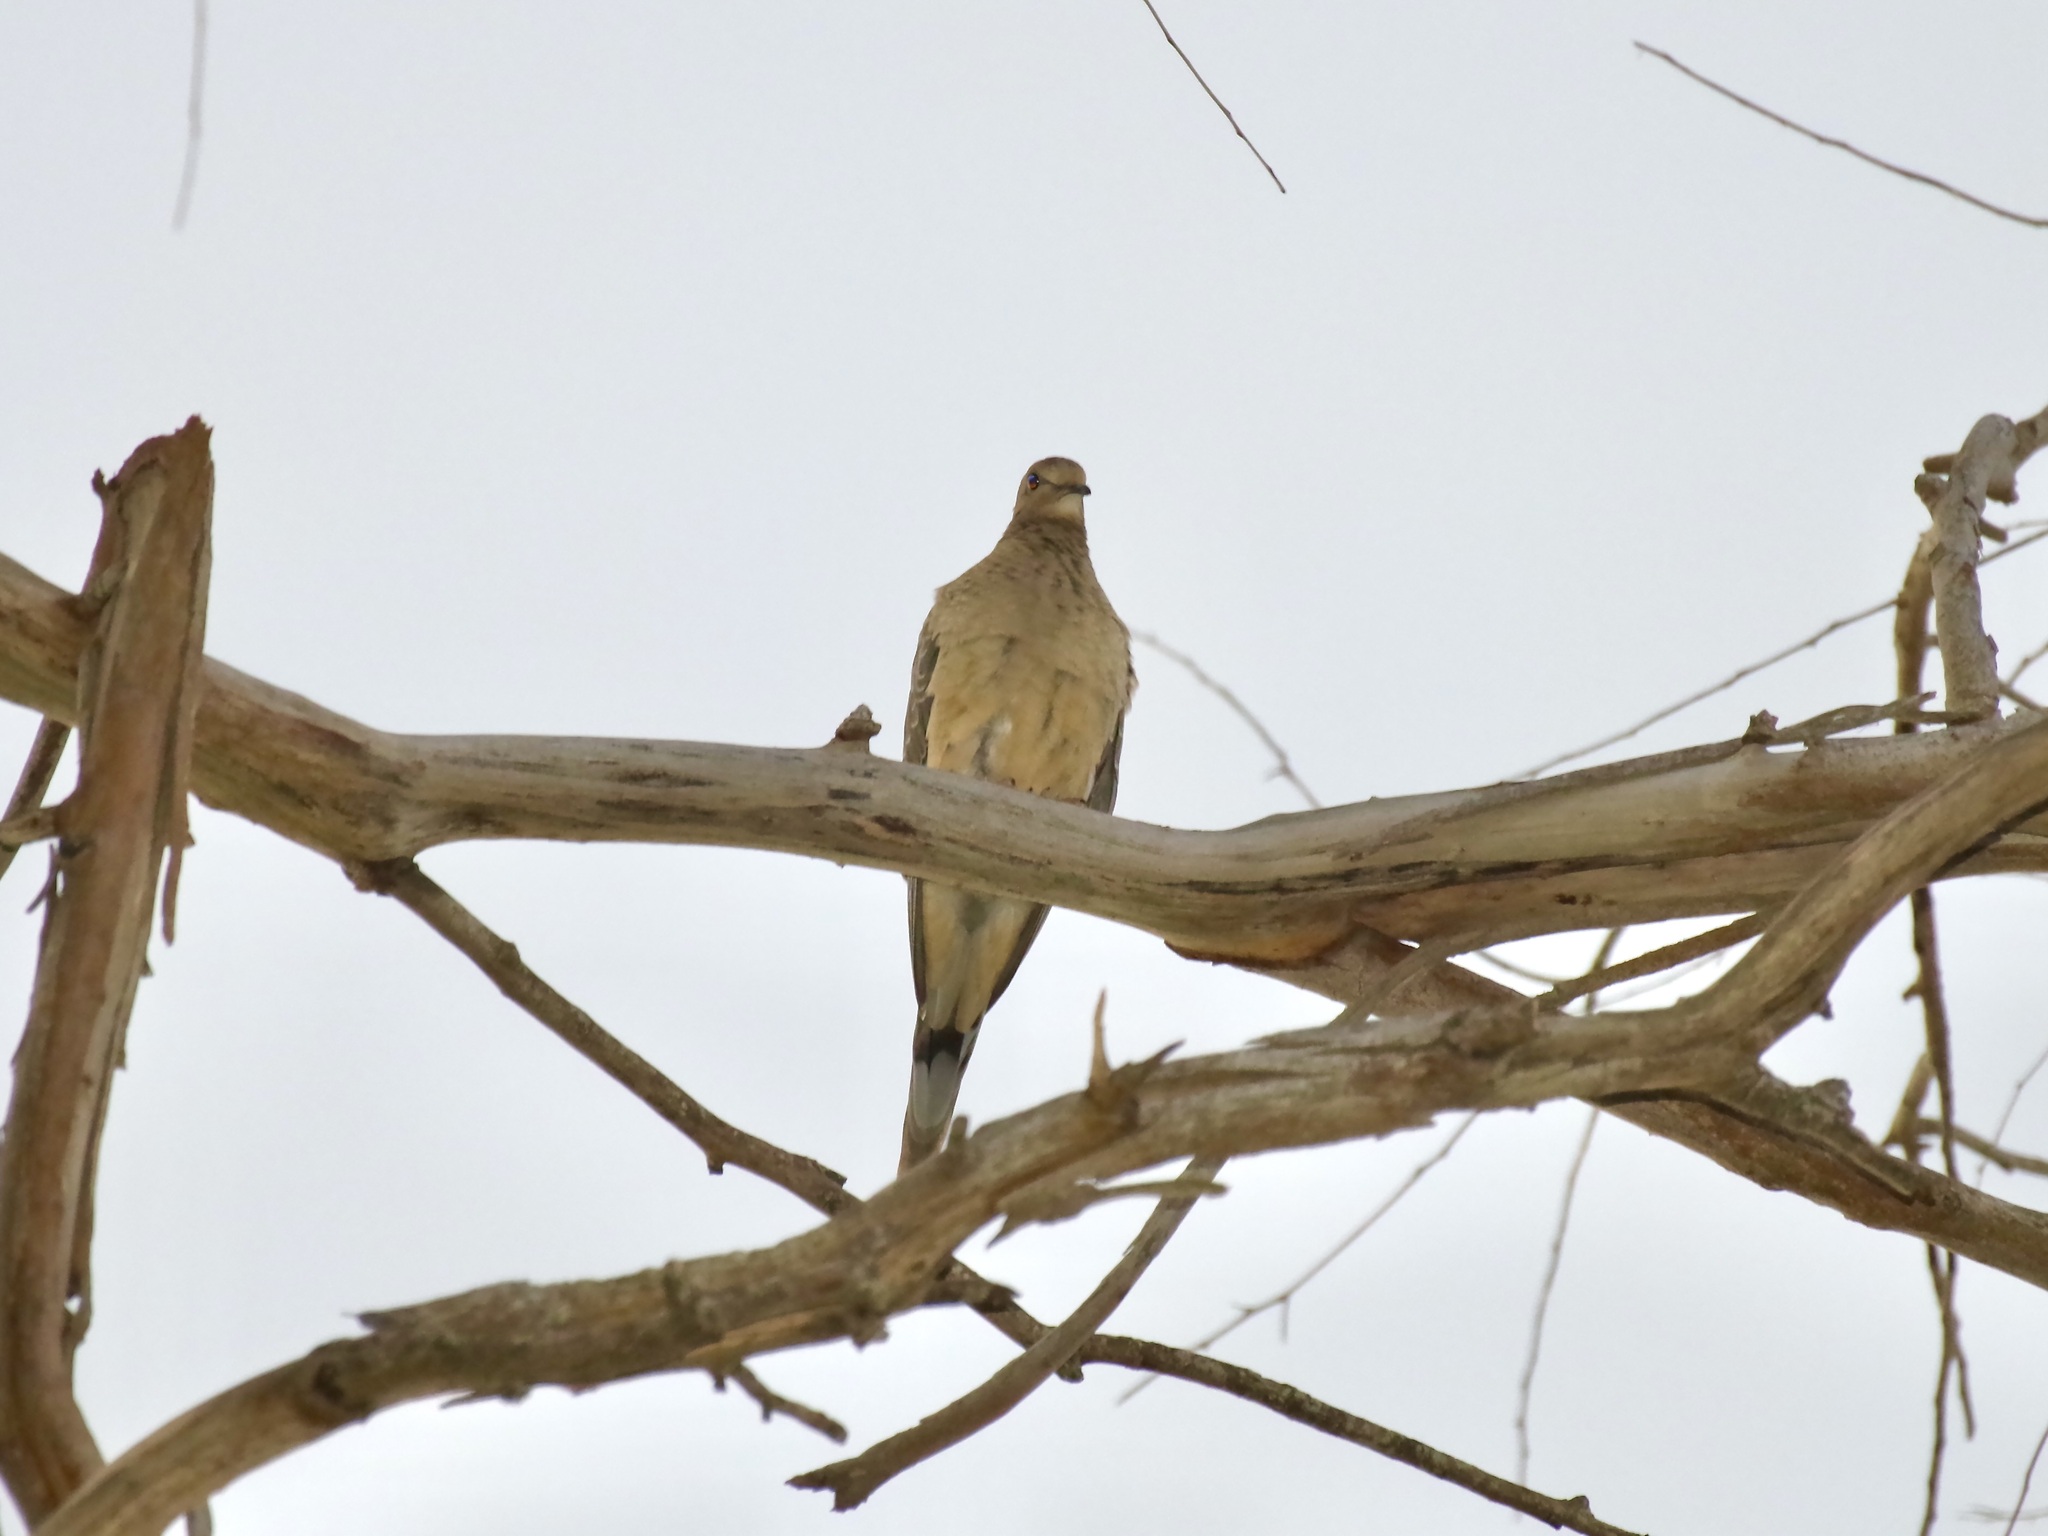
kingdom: Animalia
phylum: Chordata
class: Aves
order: Columbiformes
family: Columbidae
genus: Zenaida
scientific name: Zenaida macroura
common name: Mourning dove
